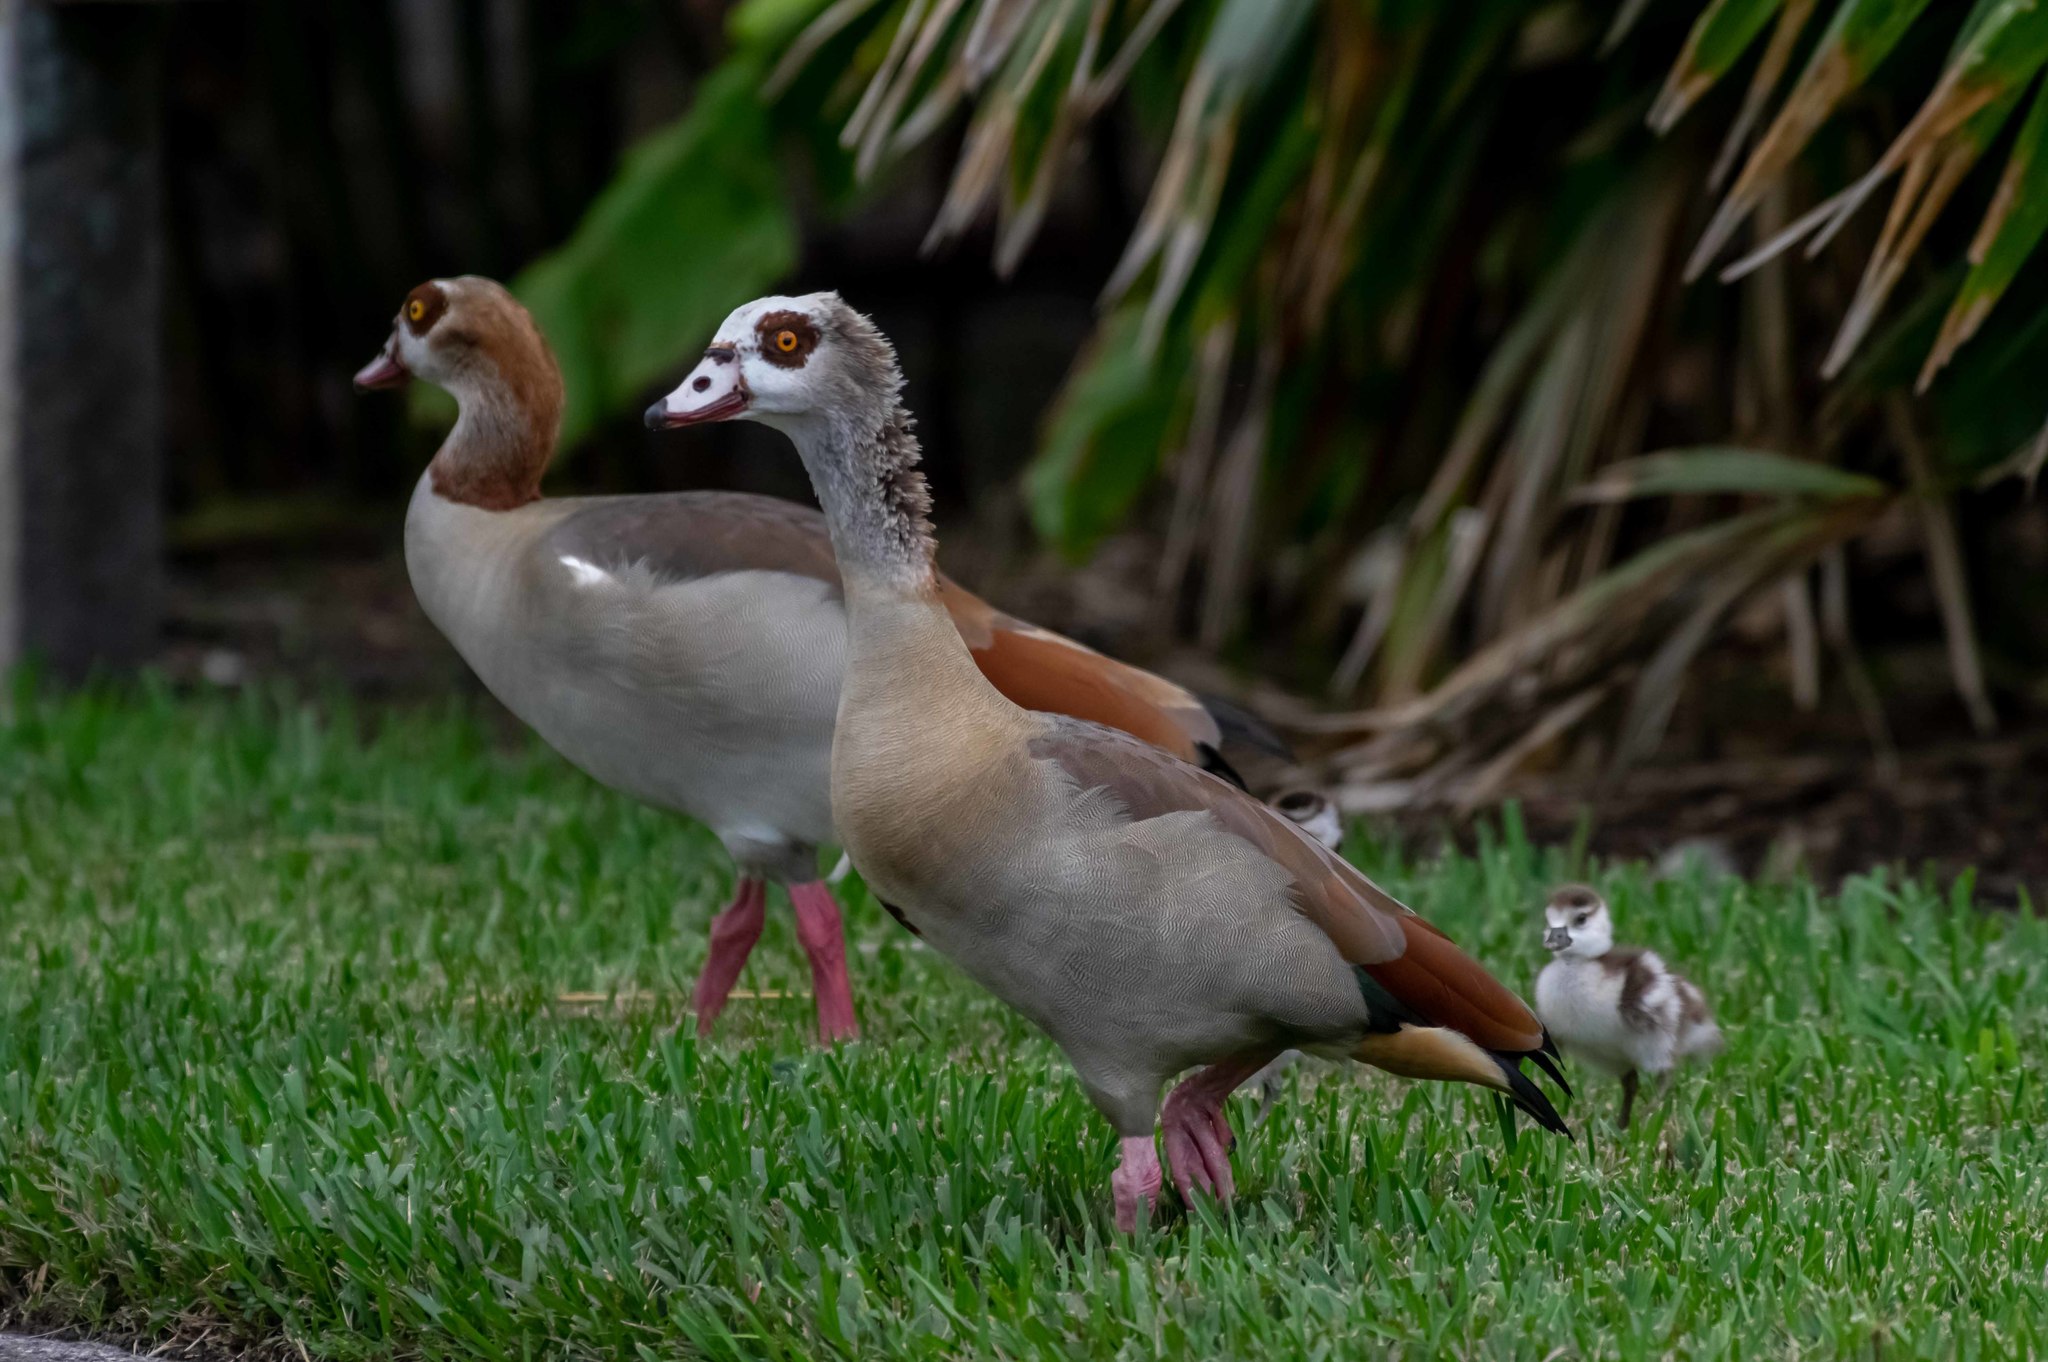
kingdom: Animalia
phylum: Chordata
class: Aves
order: Anseriformes
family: Anatidae
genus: Alopochen
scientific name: Alopochen aegyptiaca
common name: Egyptian goose
